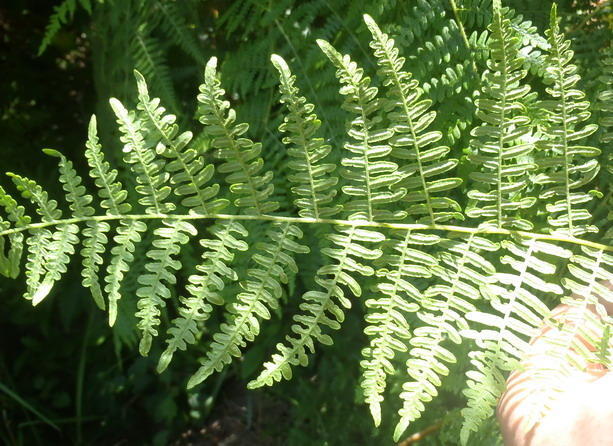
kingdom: Plantae
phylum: Tracheophyta
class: Polypodiopsida
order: Polypodiales
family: Dennstaedtiaceae
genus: Hypolepis
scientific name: Hypolepis sparsisora
